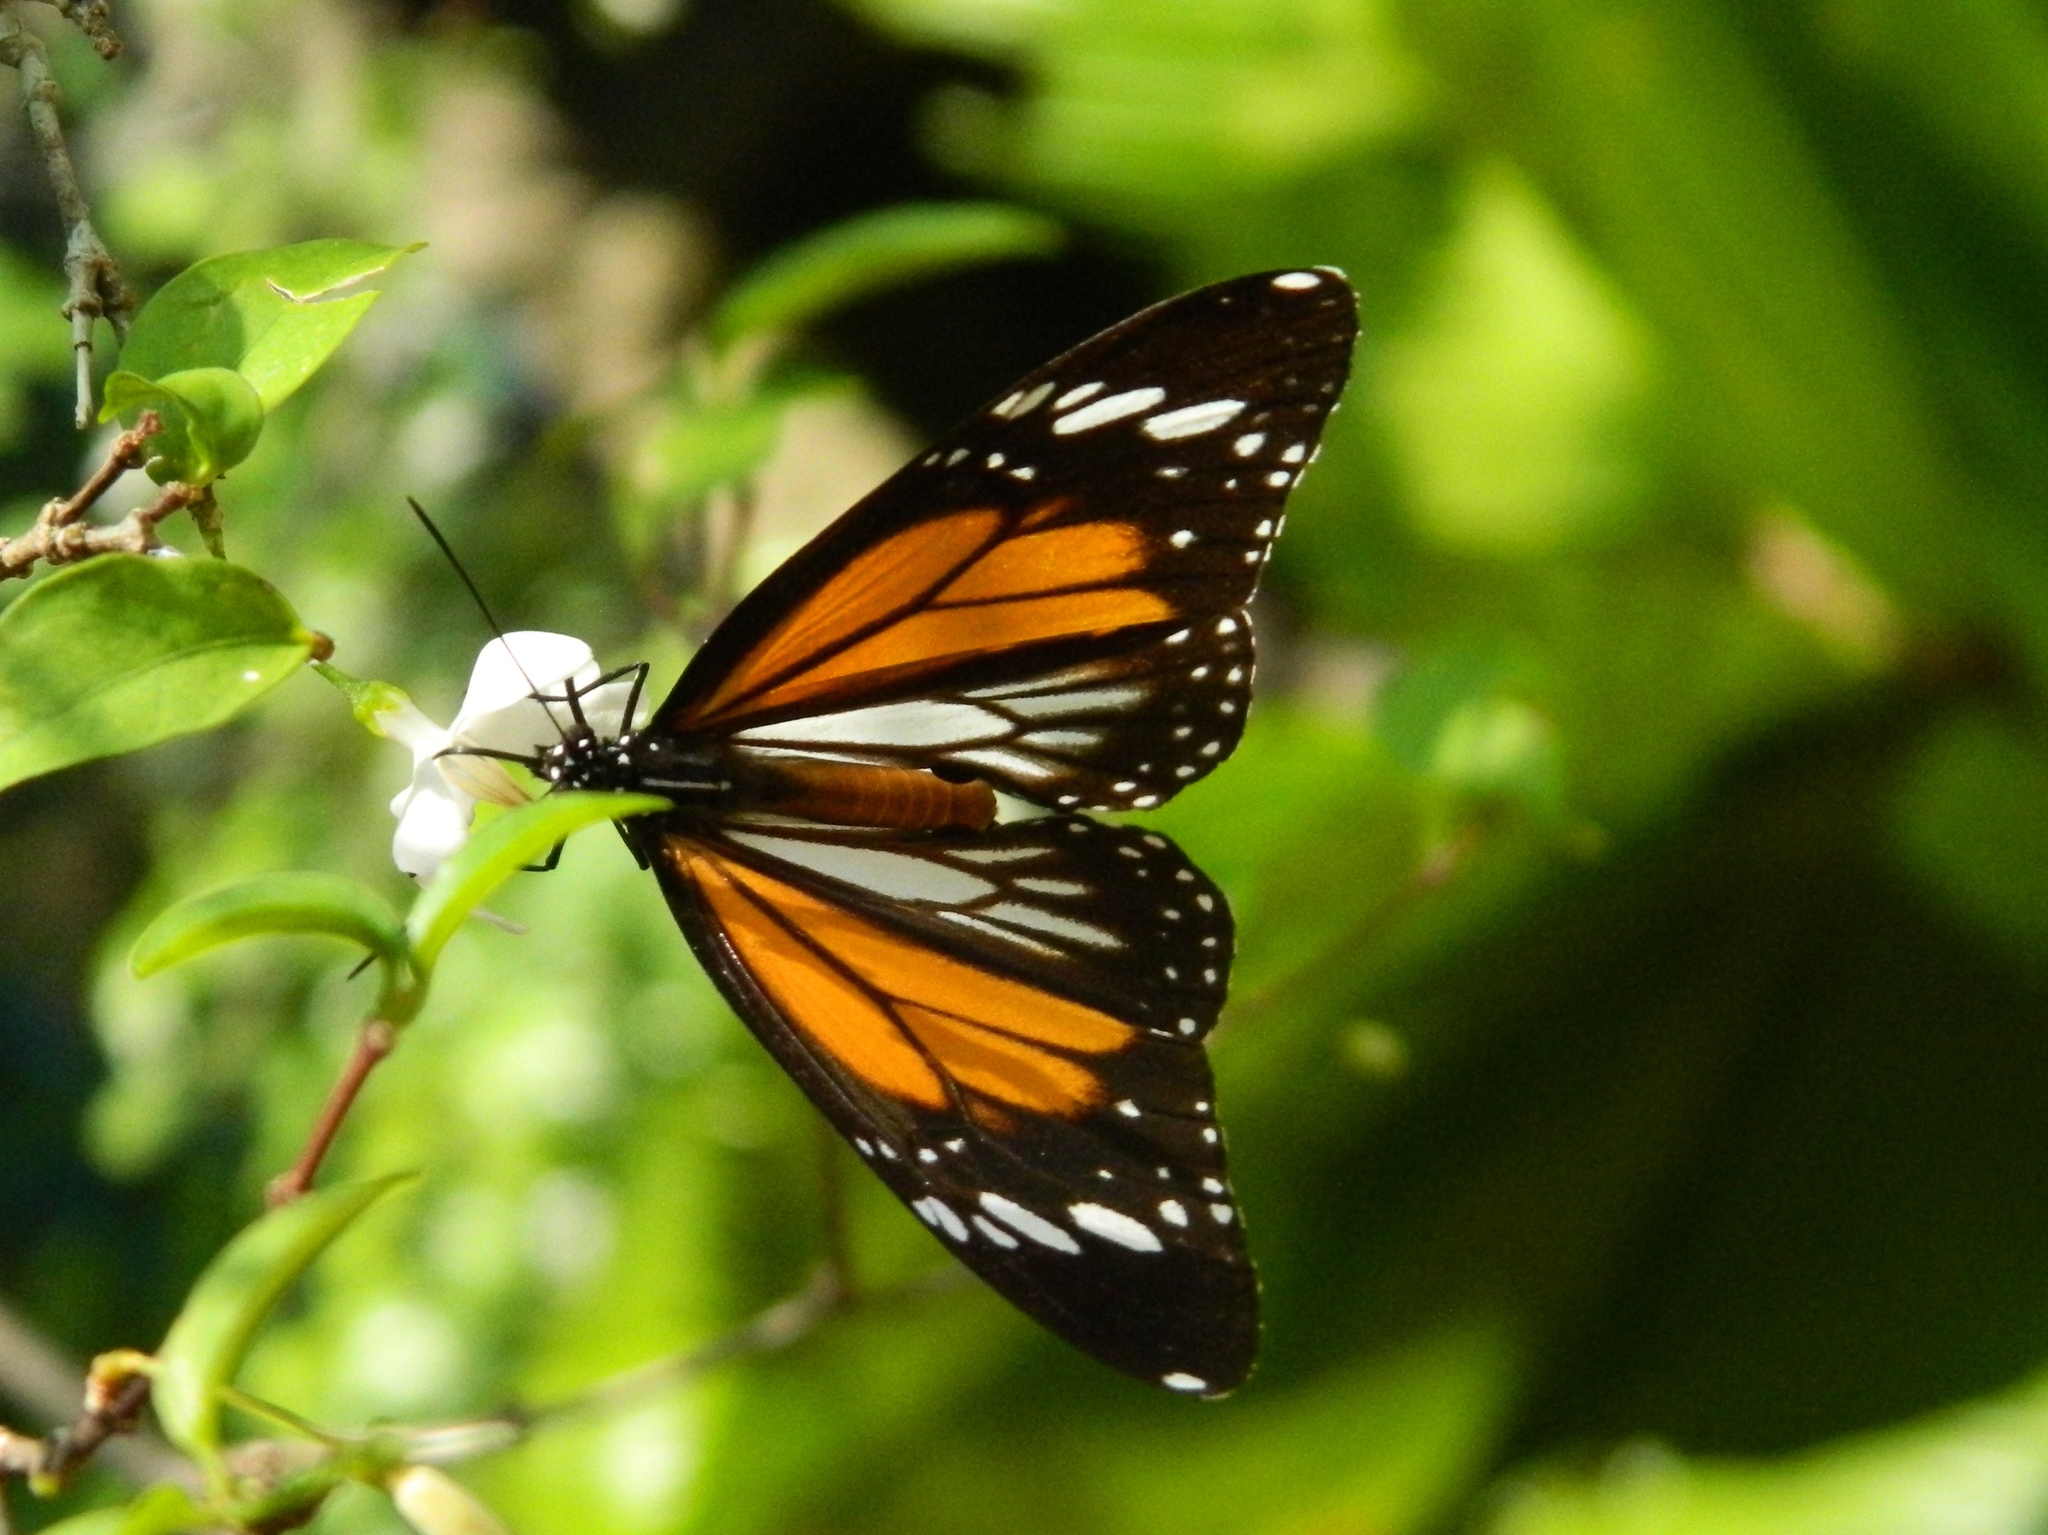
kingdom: Animalia
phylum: Arthropoda
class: Insecta
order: Lepidoptera
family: Nymphalidae
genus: Danaus
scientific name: Danaus melanippus
